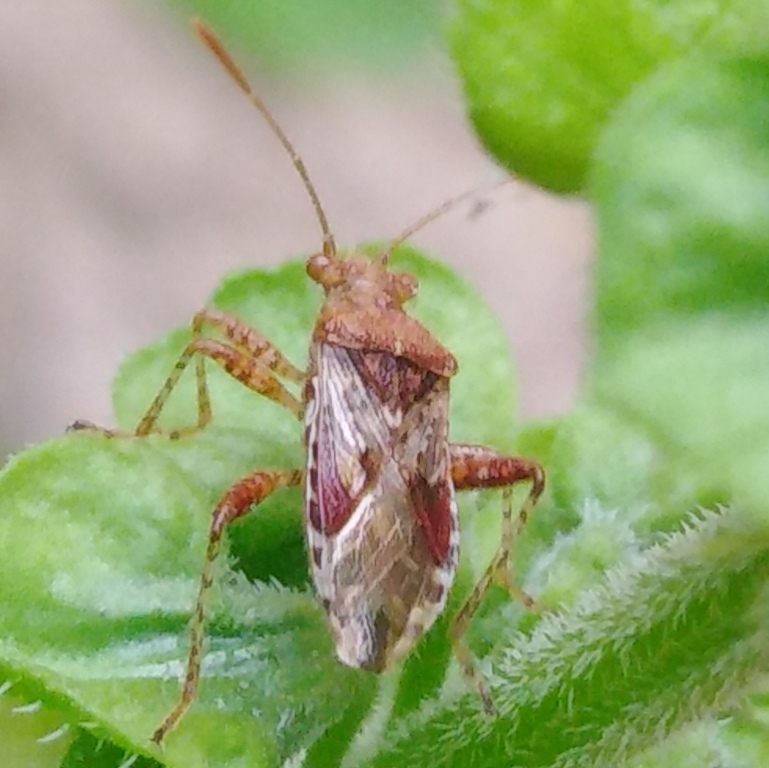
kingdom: Animalia
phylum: Arthropoda
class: Insecta
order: Hemiptera
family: Rhopalidae
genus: Rhopalus
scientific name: Rhopalus subrufus
